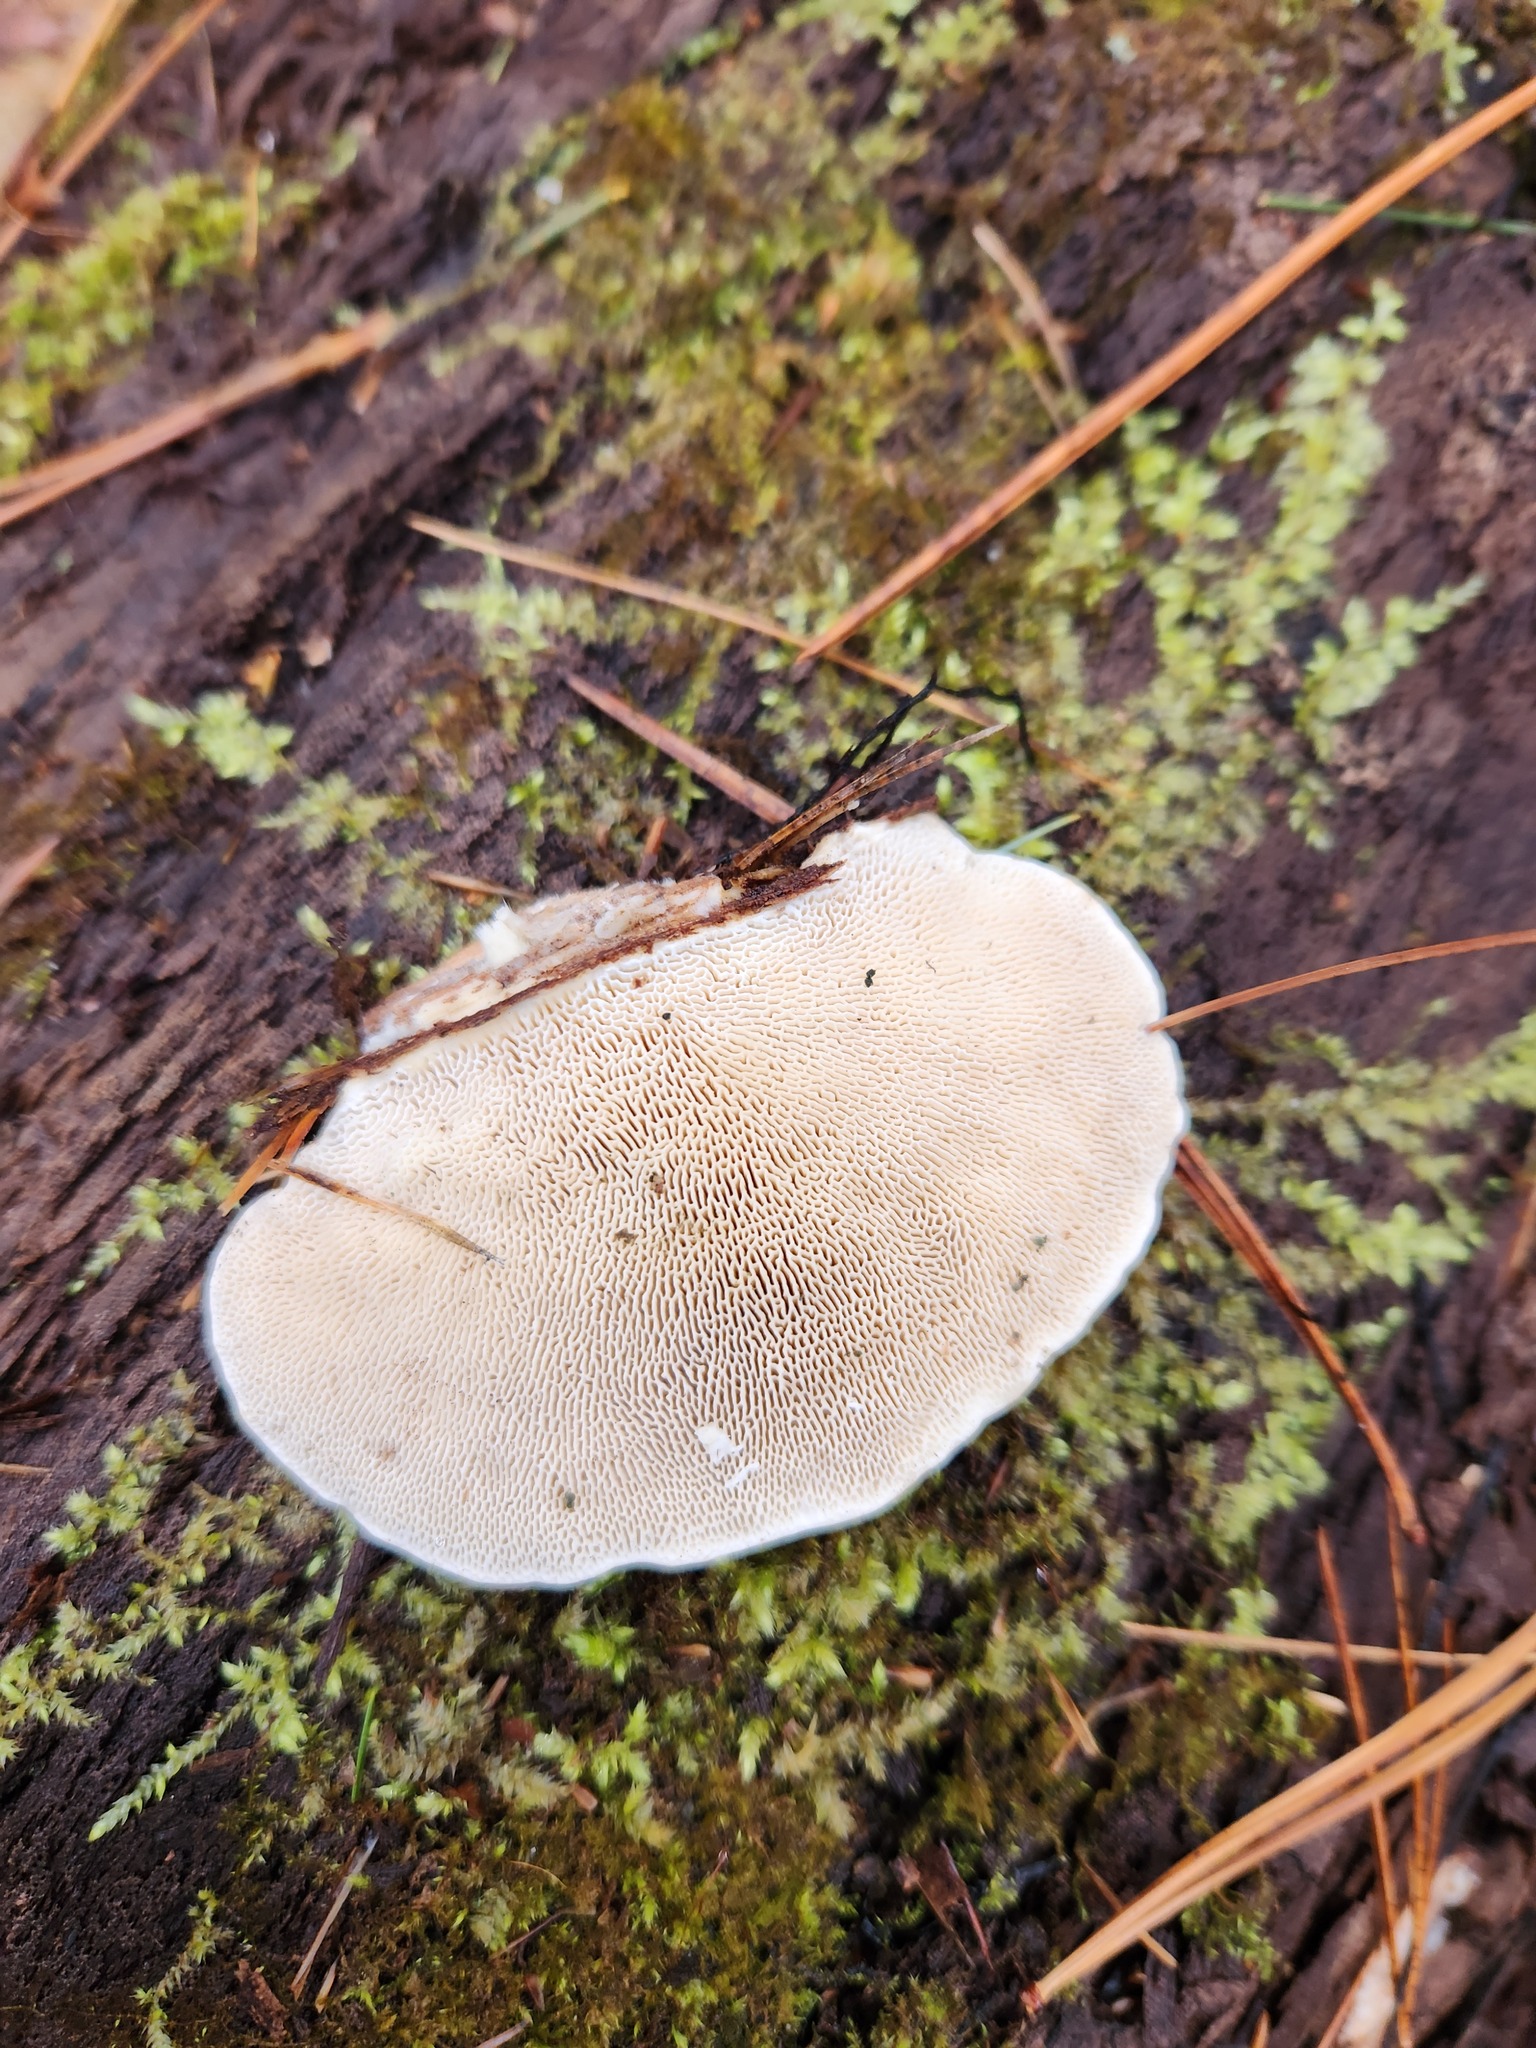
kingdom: Fungi
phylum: Basidiomycota
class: Agaricomycetes
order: Polyporales
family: Polyporaceae
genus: Trametes
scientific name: Trametes gibbosa
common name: Lumpy bracket
